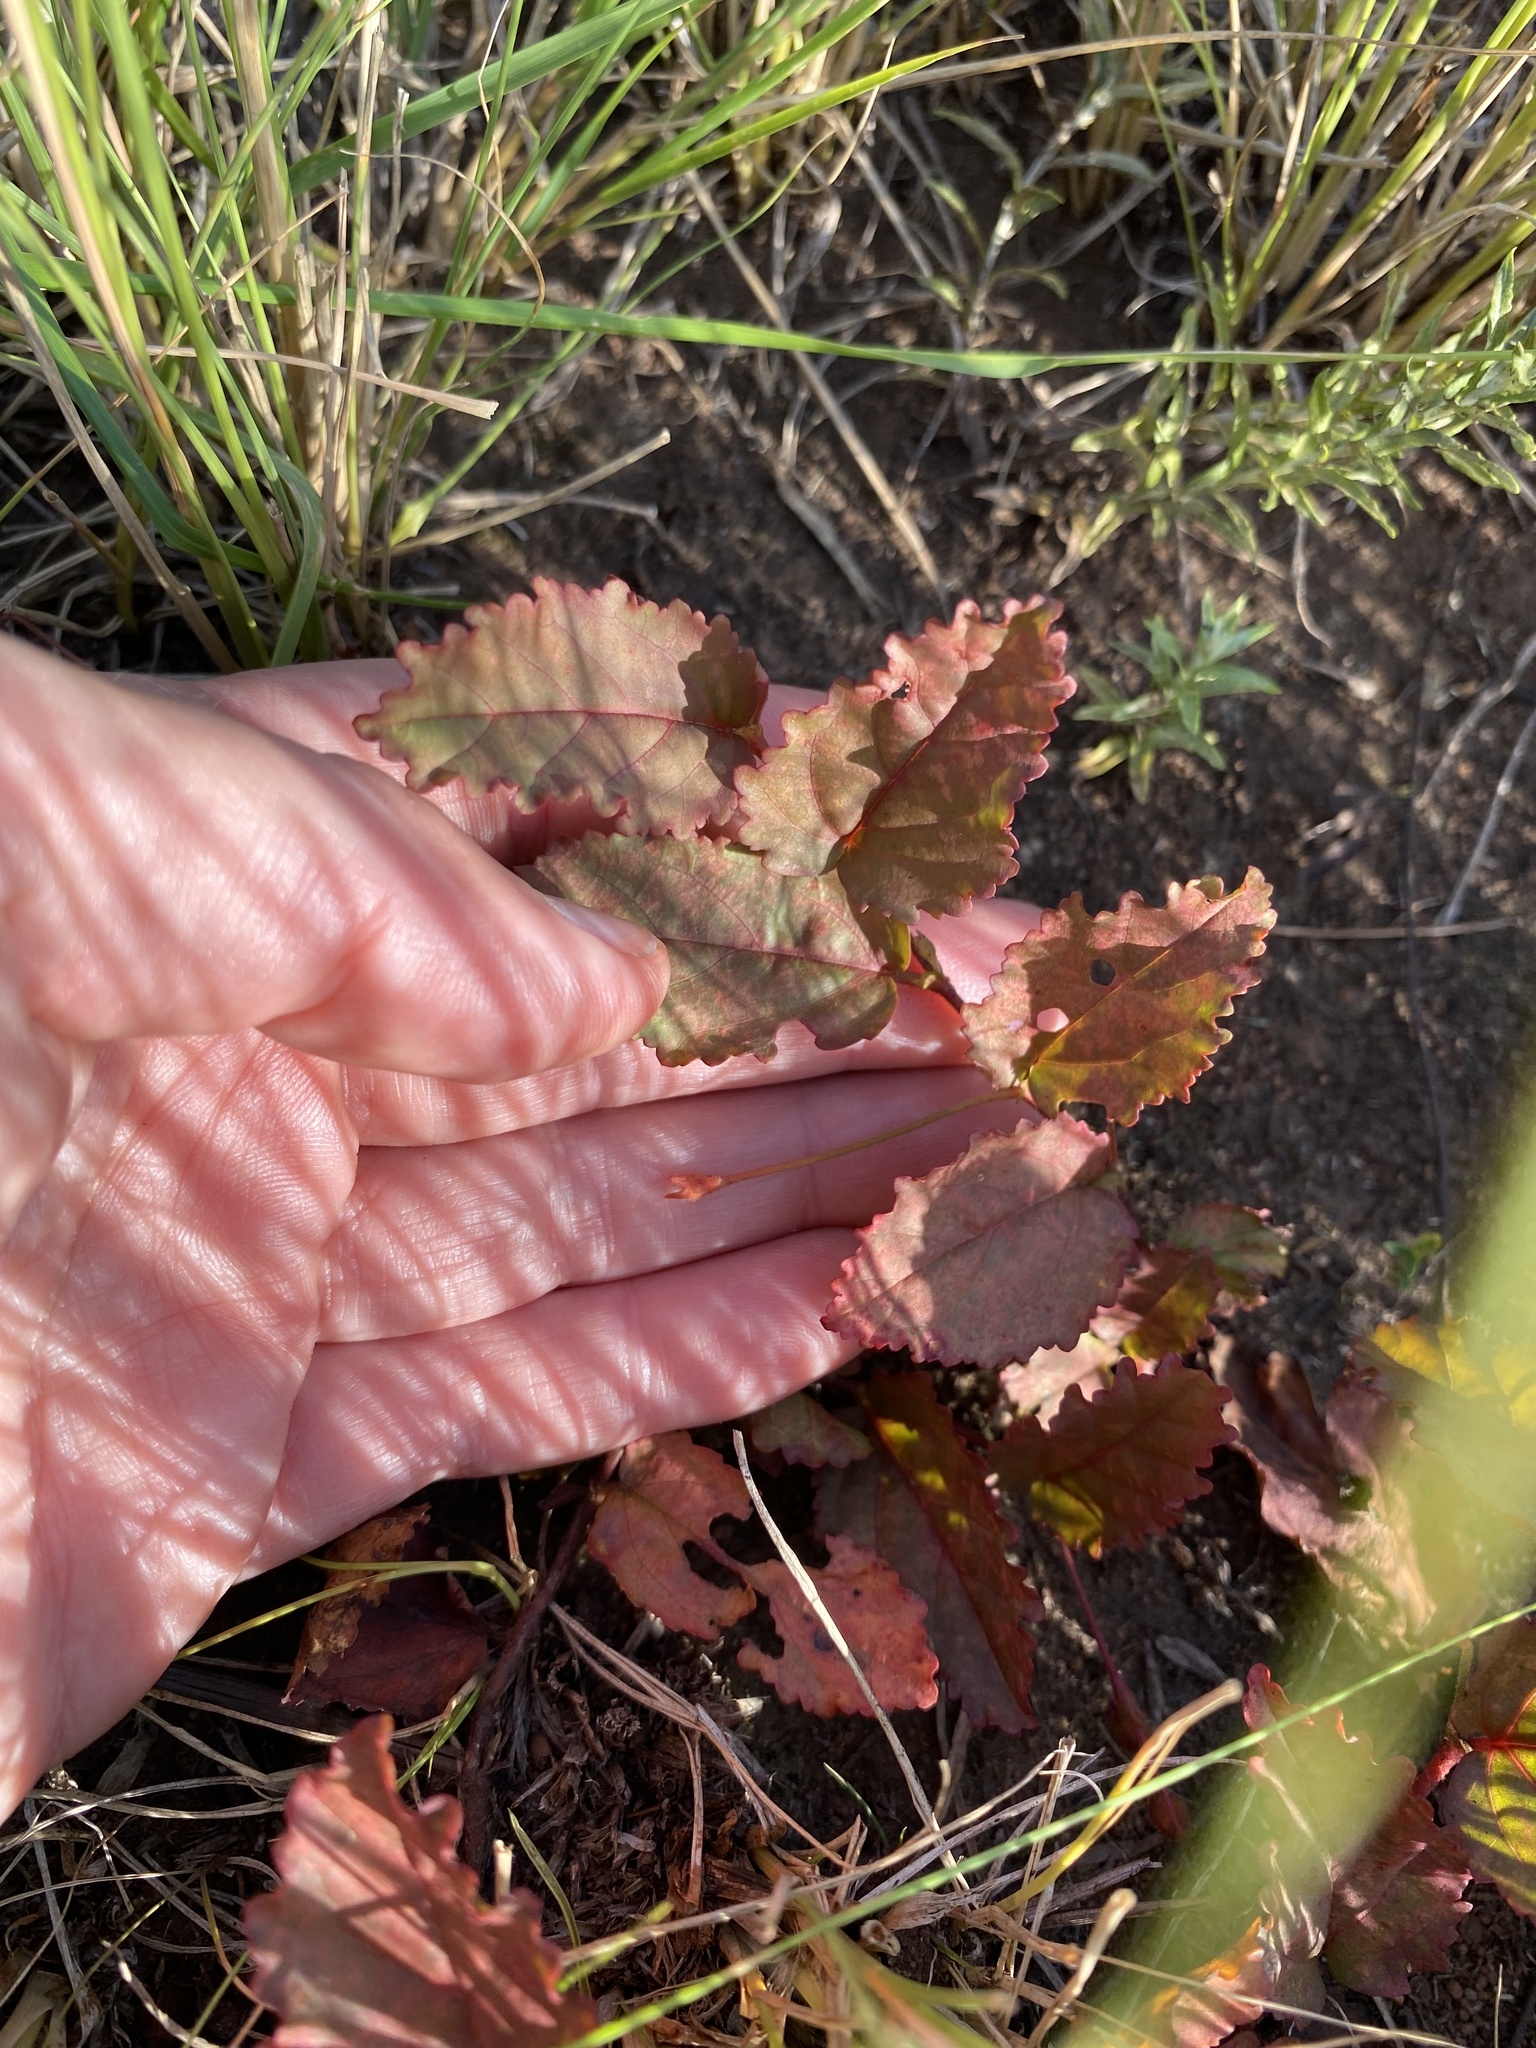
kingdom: Plantae
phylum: Tracheophyta
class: Magnoliopsida
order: Malvales
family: Malvaceae
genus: Hermannia
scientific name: Hermannia depressa
